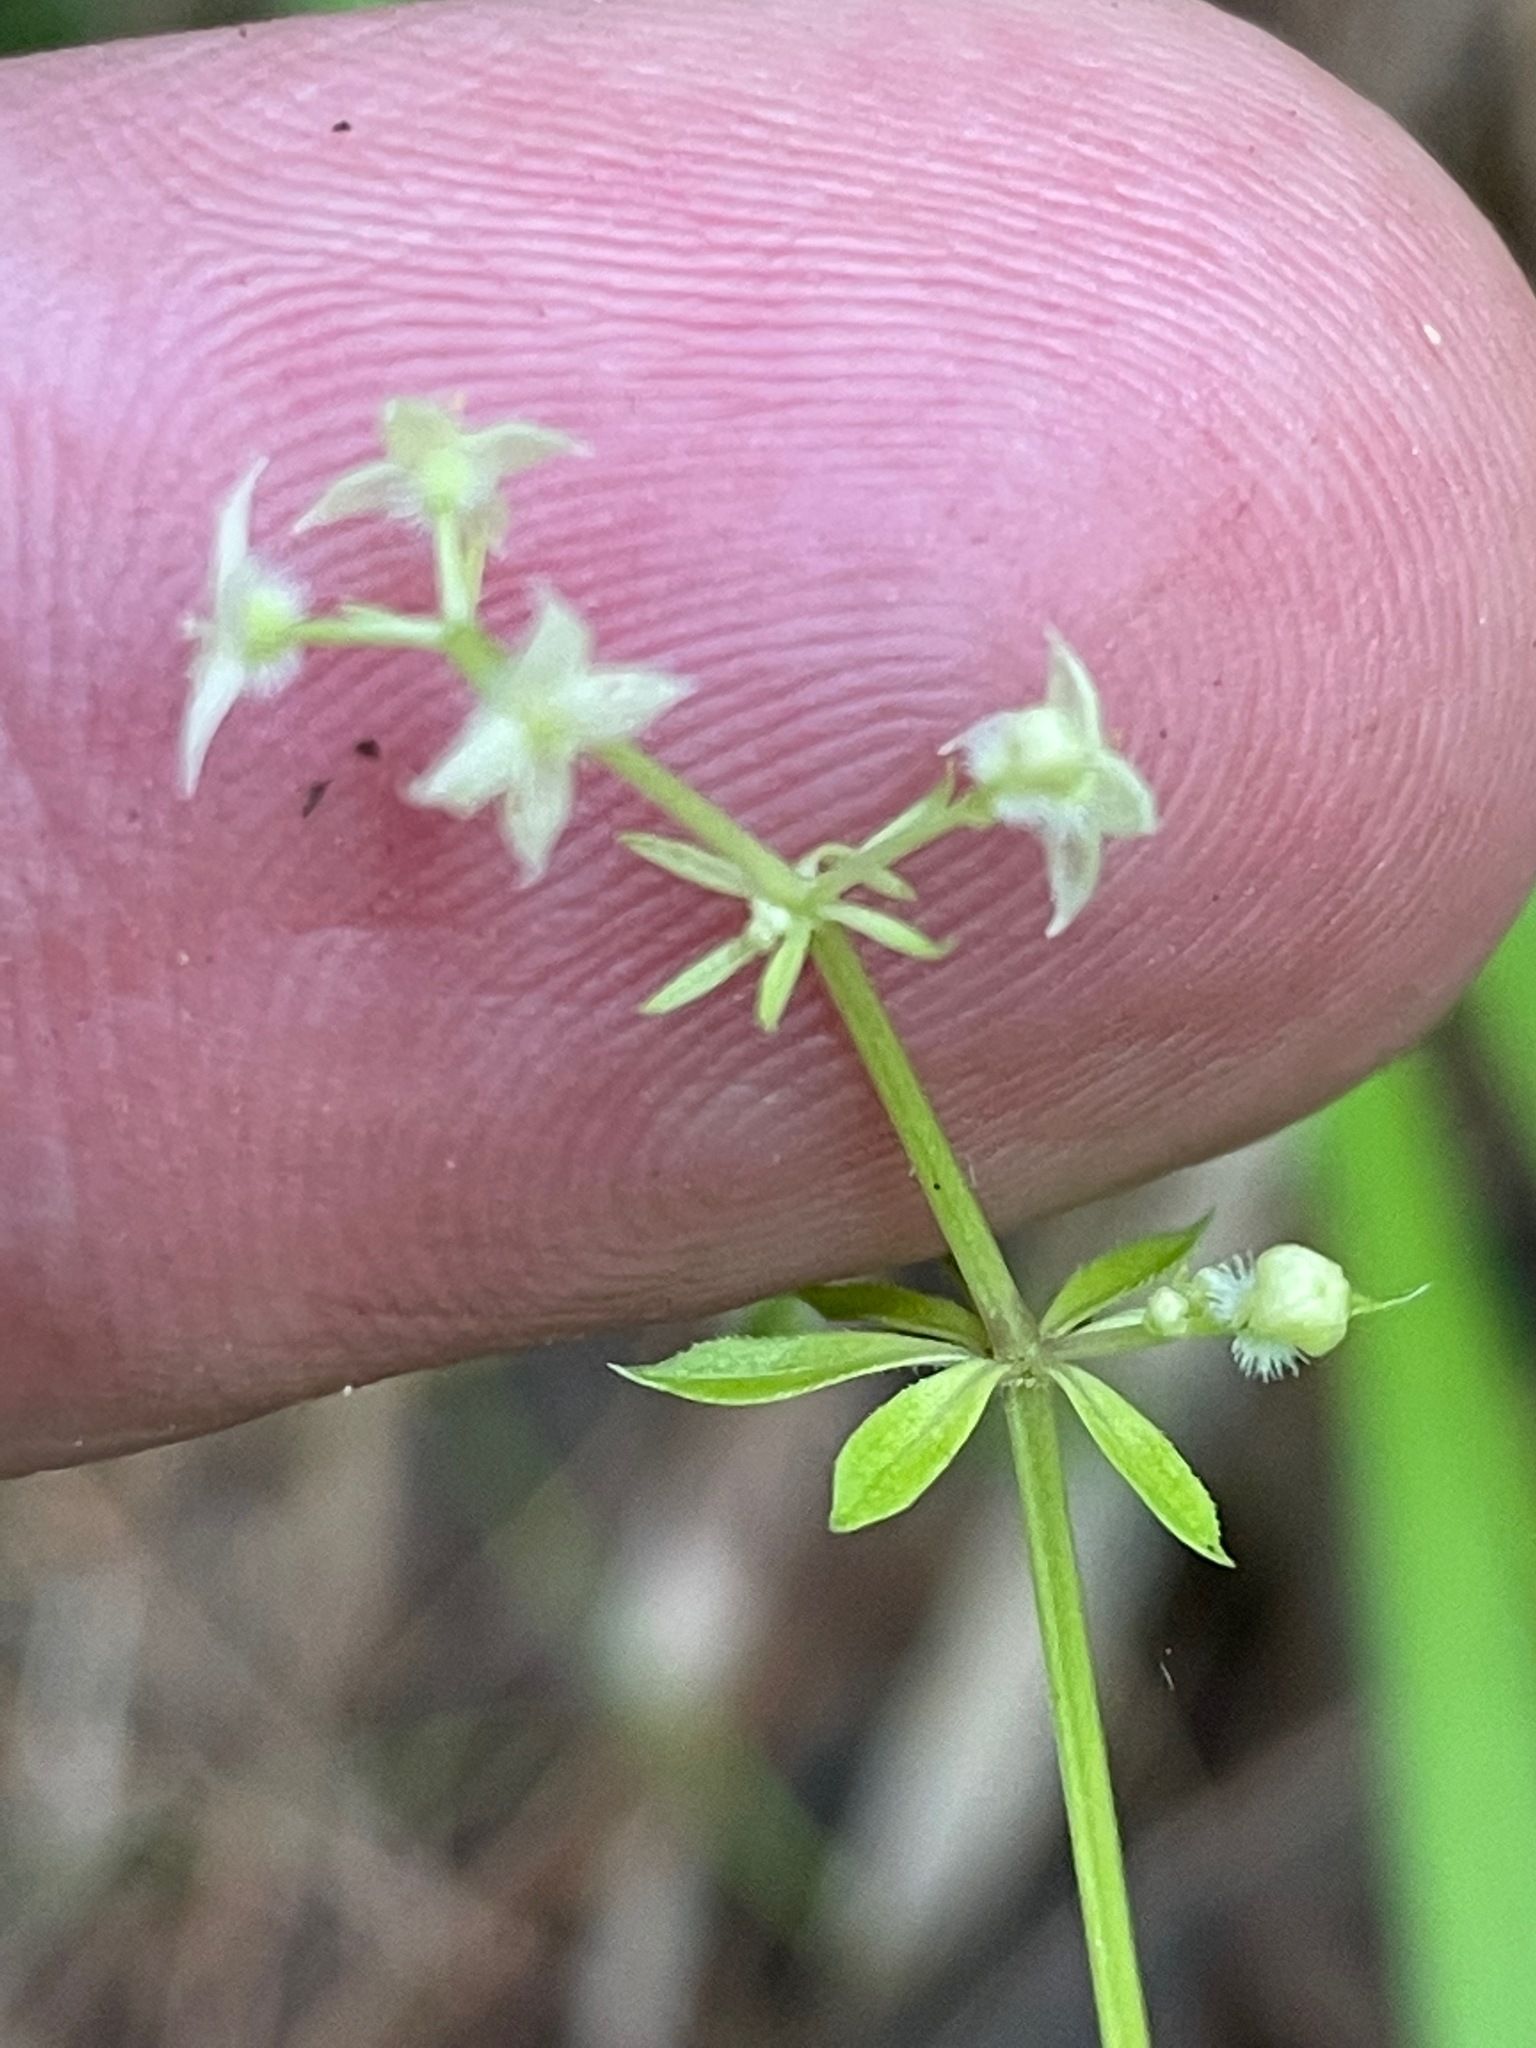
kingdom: Plantae
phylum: Tracheophyta
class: Magnoliopsida
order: Gentianales
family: Rubiaceae
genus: Galium
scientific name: Galium triflorum
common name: Fragrant bedstraw
